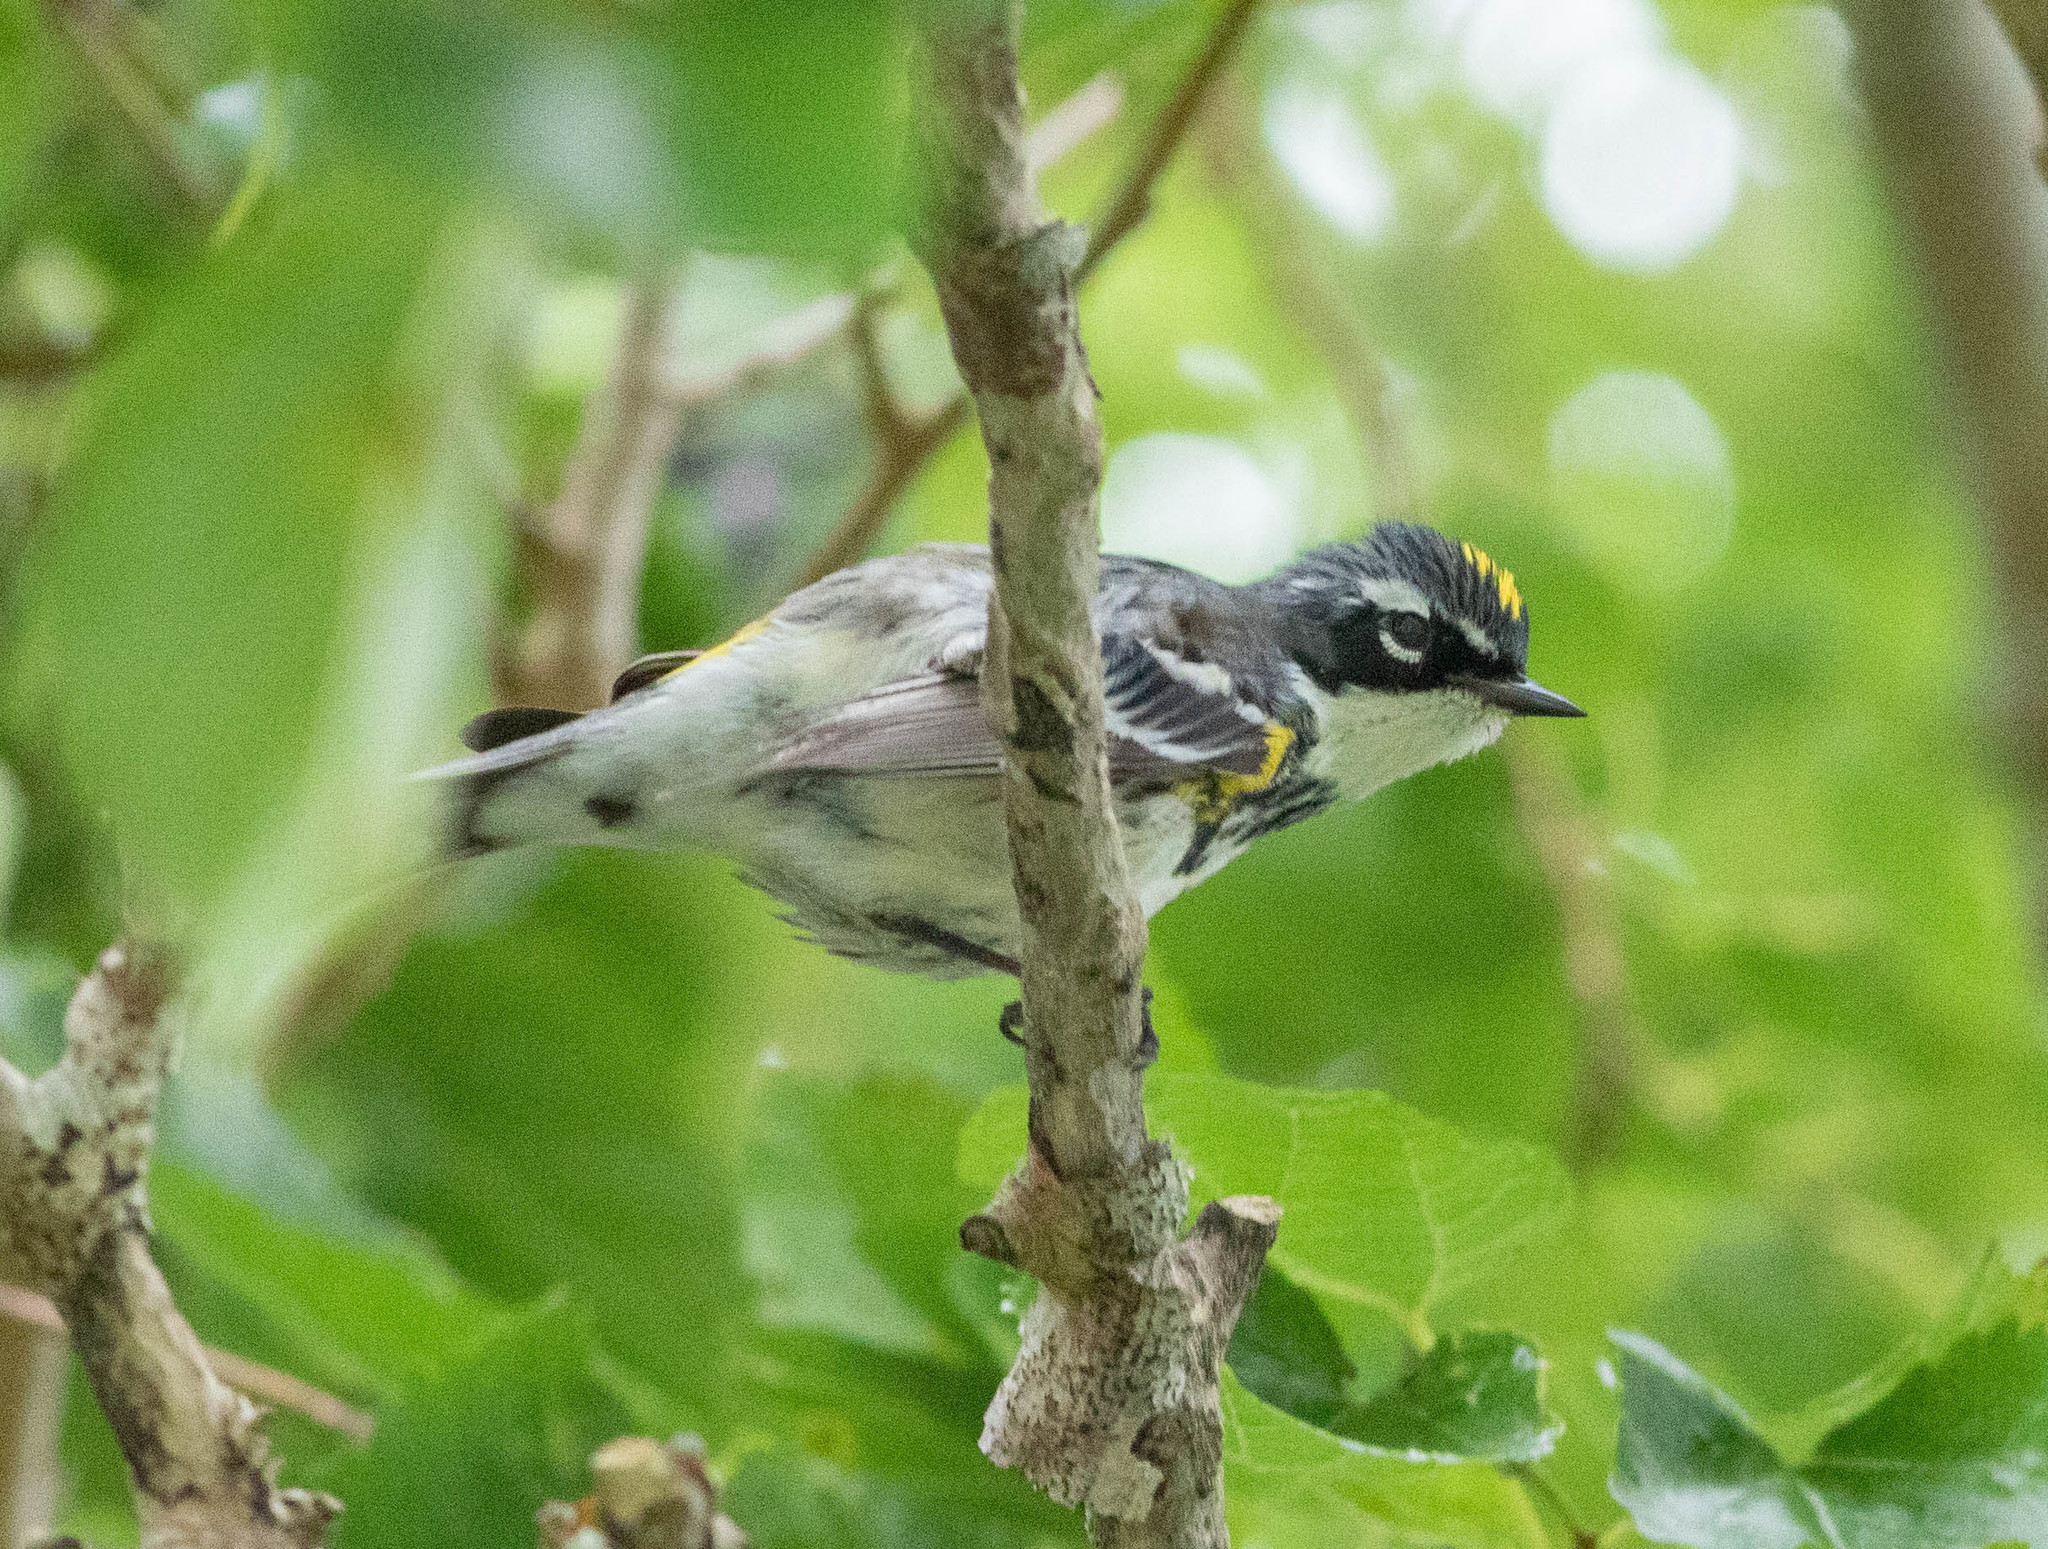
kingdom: Animalia
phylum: Chordata
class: Aves
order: Passeriformes
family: Parulidae
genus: Setophaga
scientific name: Setophaga coronata
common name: Myrtle warbler
